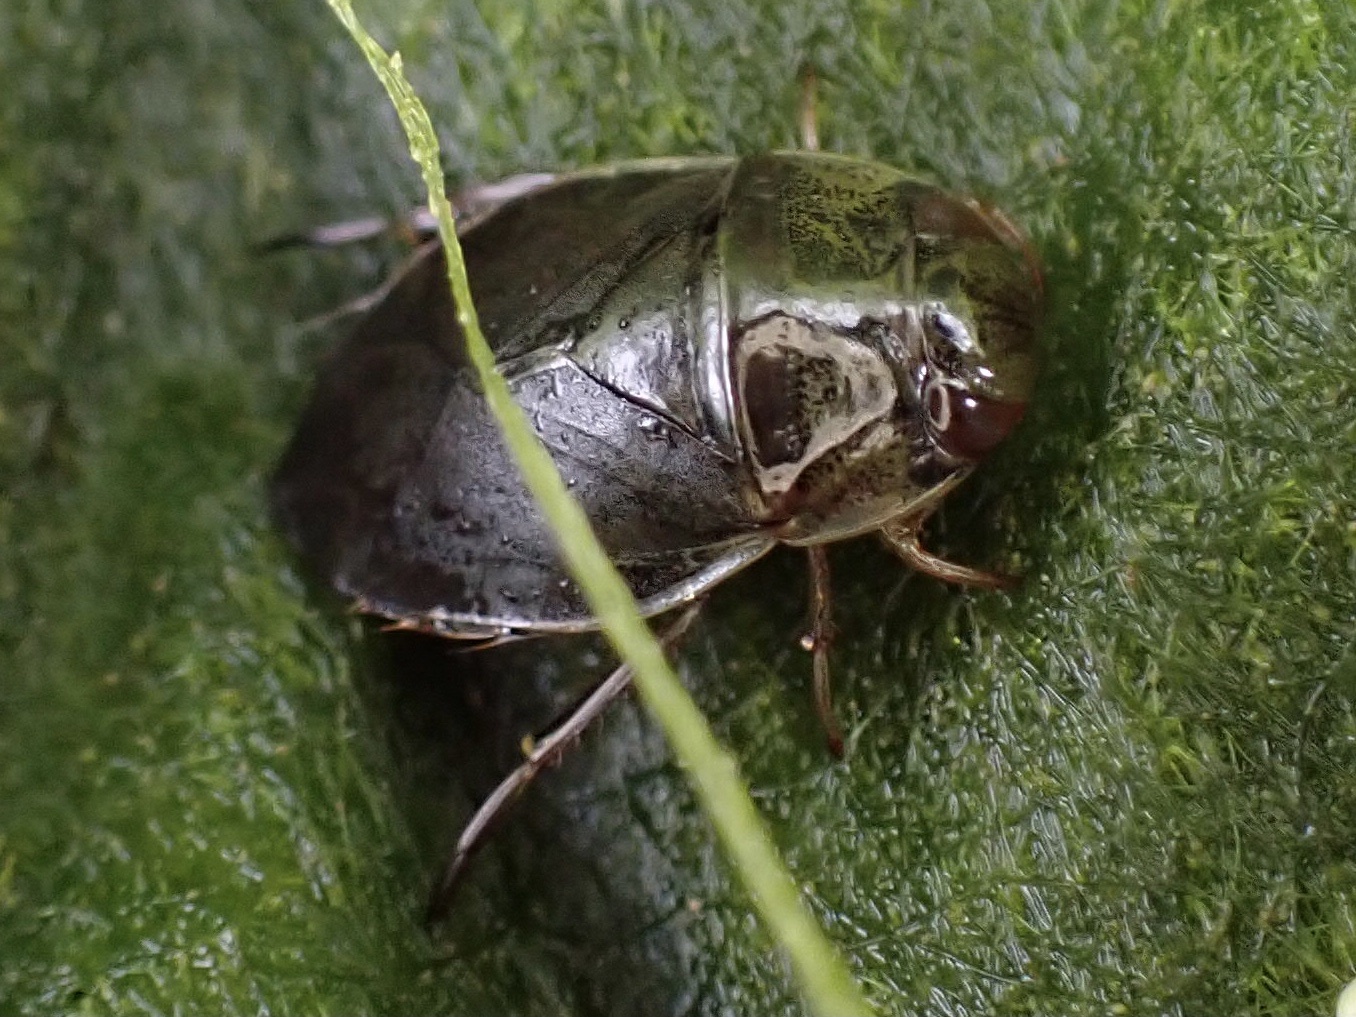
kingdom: Animalia
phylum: Arthropoda
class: Insecta
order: Hemiptera
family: Naucoridae
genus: Ilyocoris
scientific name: Ilyocoris cimicoides
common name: Saucer bugs
